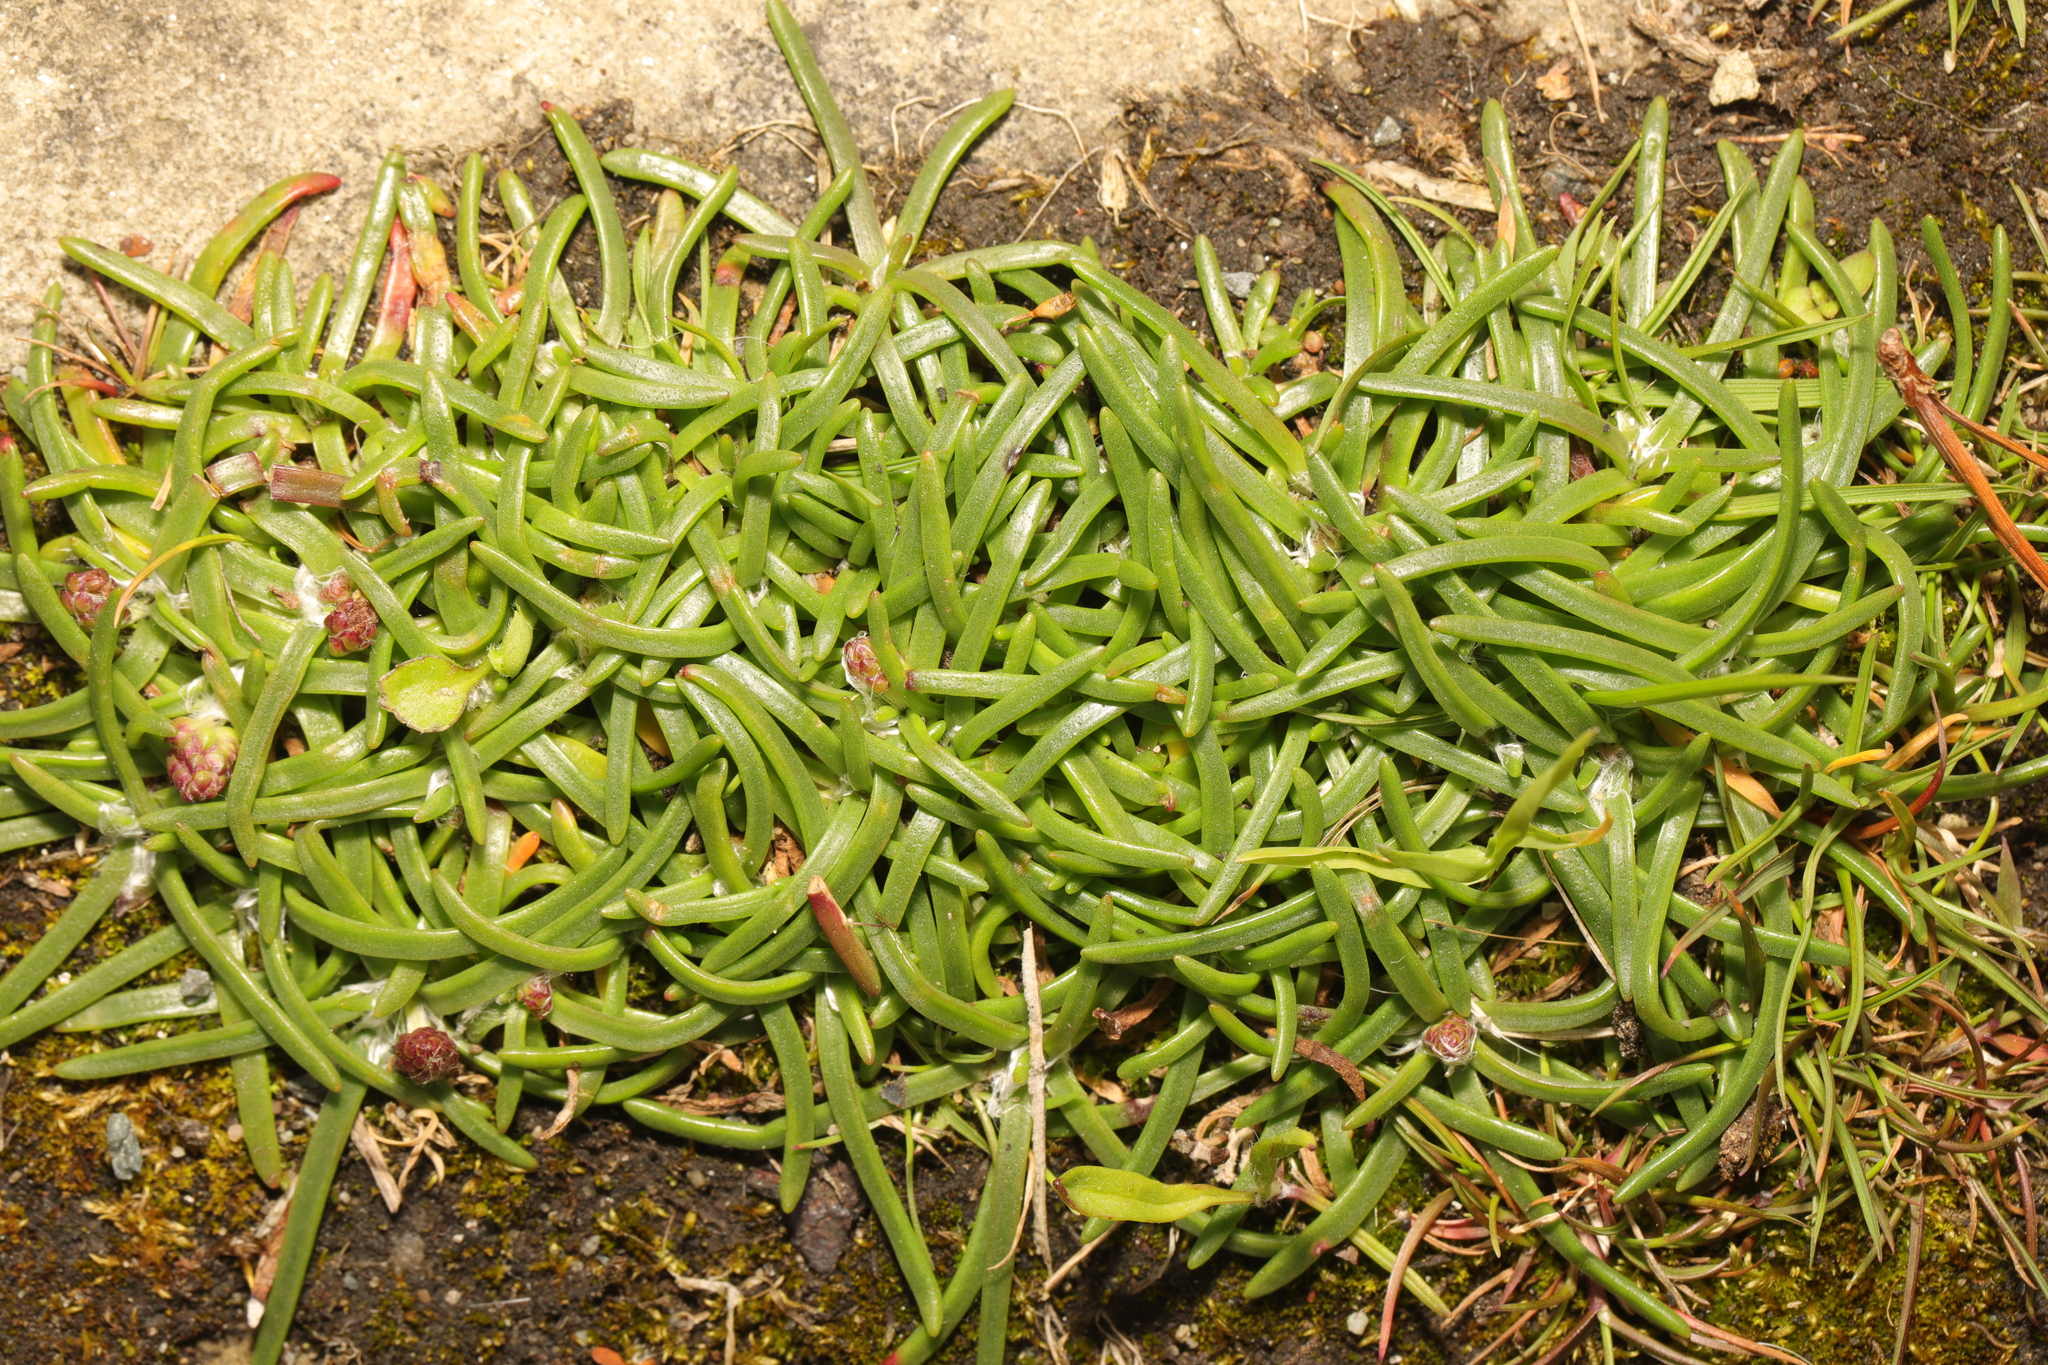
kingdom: Plantae
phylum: Tracheophyta
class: Magnoliopsida
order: Lamiales
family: Plantaginaceae
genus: Plantago
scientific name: Plantago maritima
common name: Sea plantain
